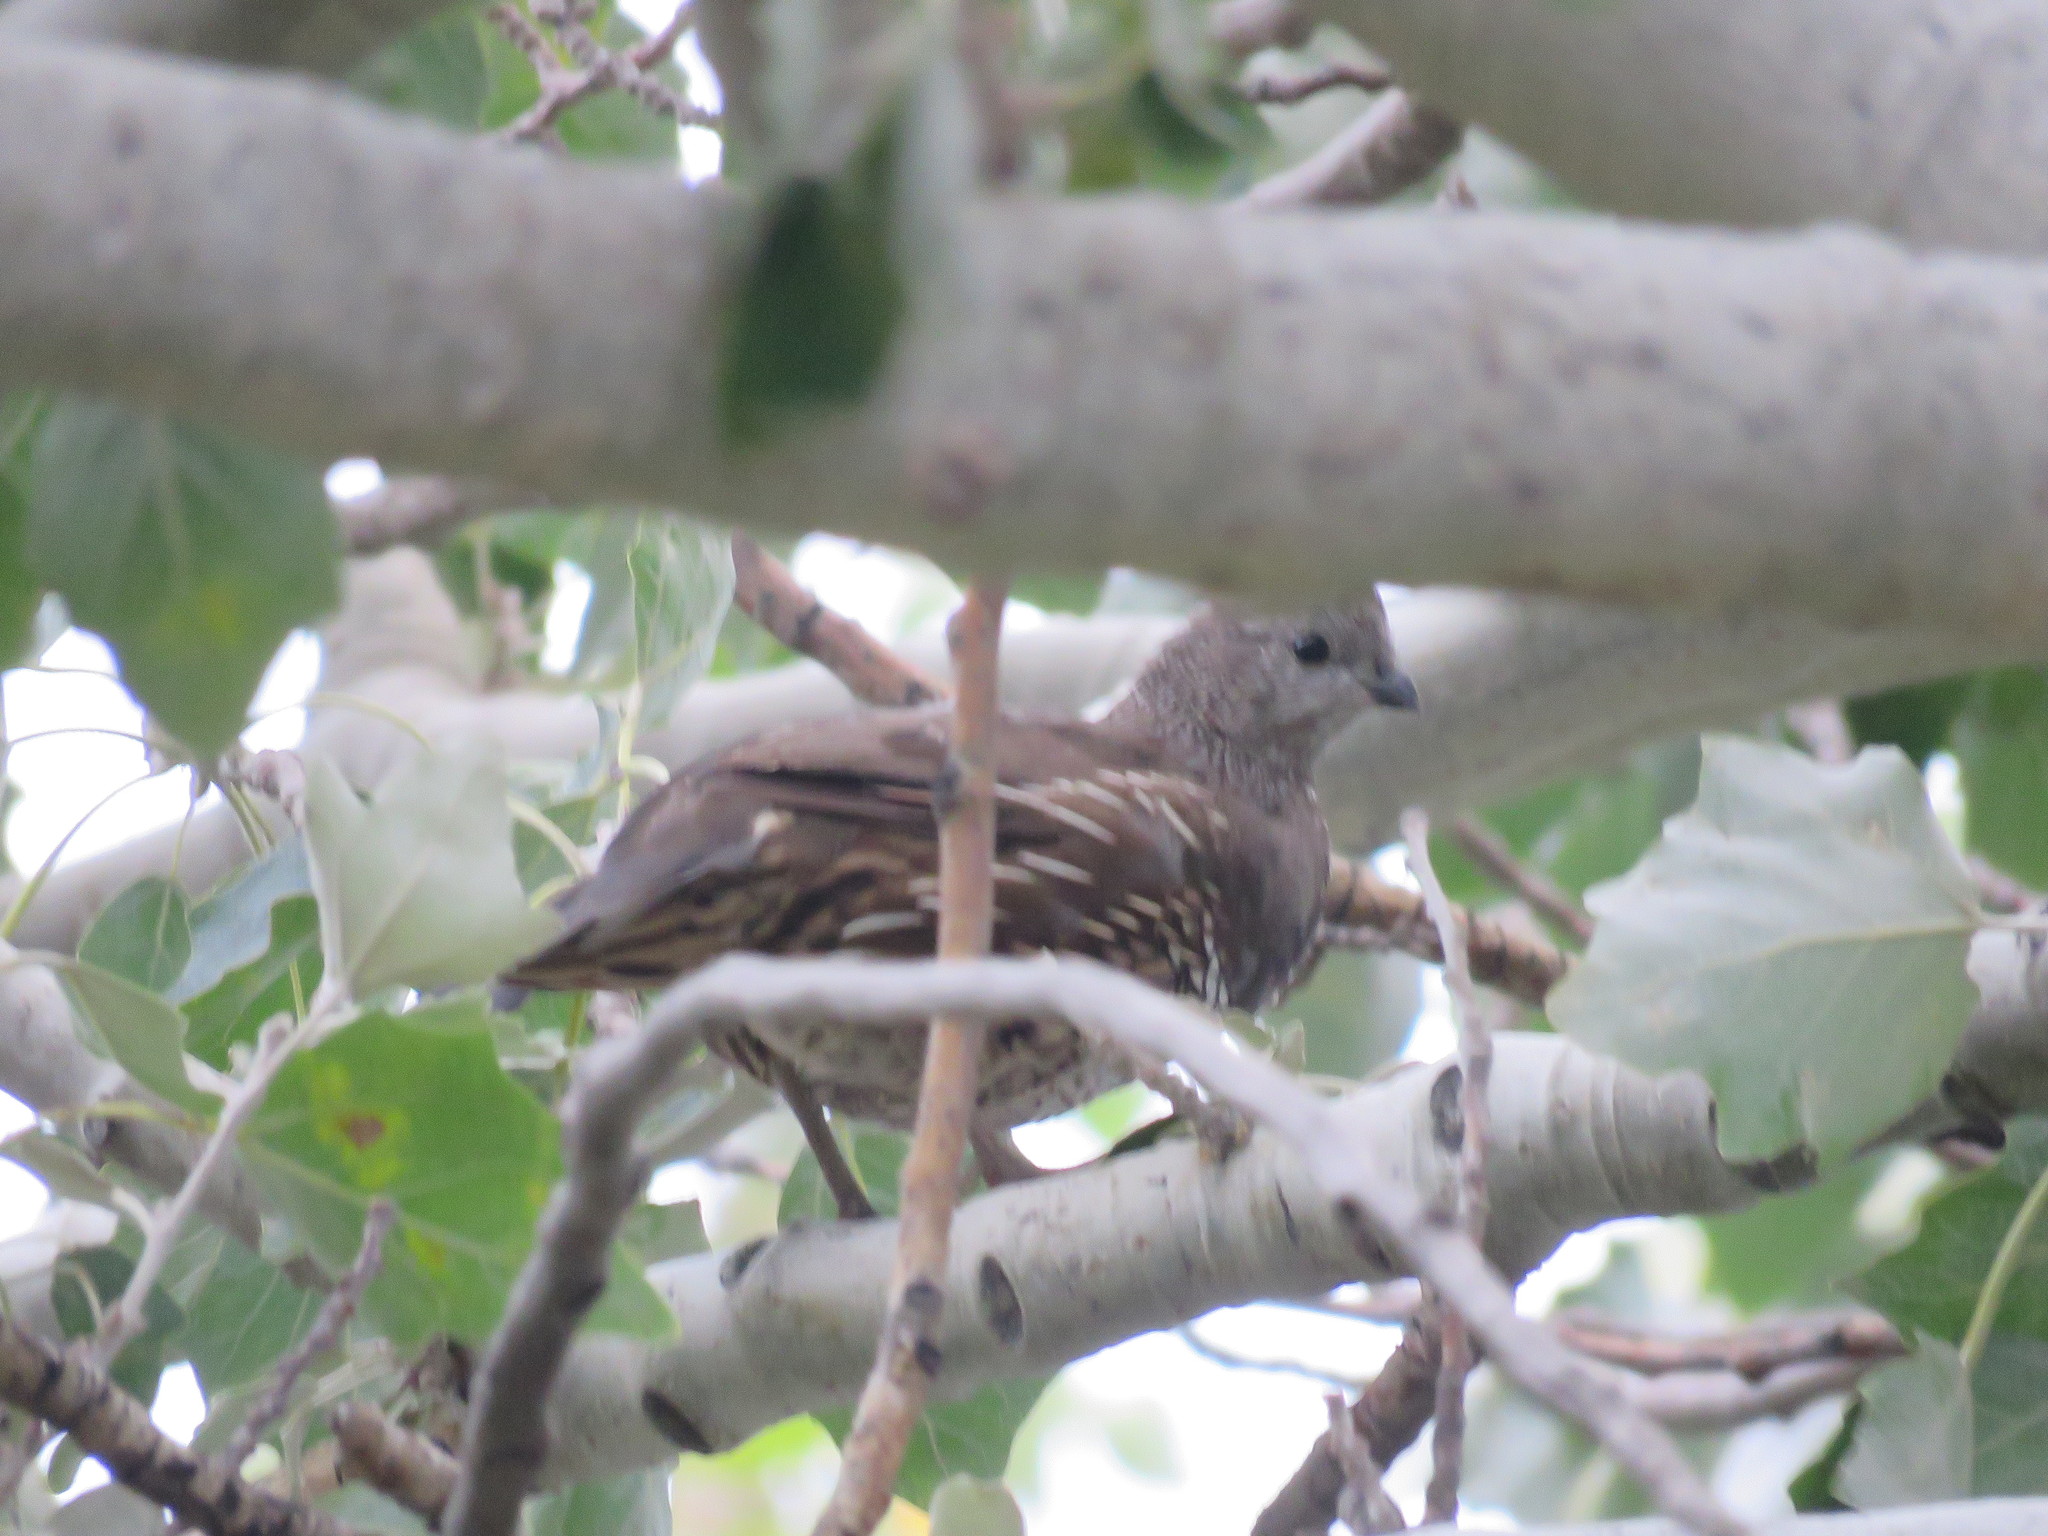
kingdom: Animalia
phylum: Chordata
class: Aves
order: Galliformes
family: Odontophoridae
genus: Callipepla
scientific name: Callipepla californica
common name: California quail
